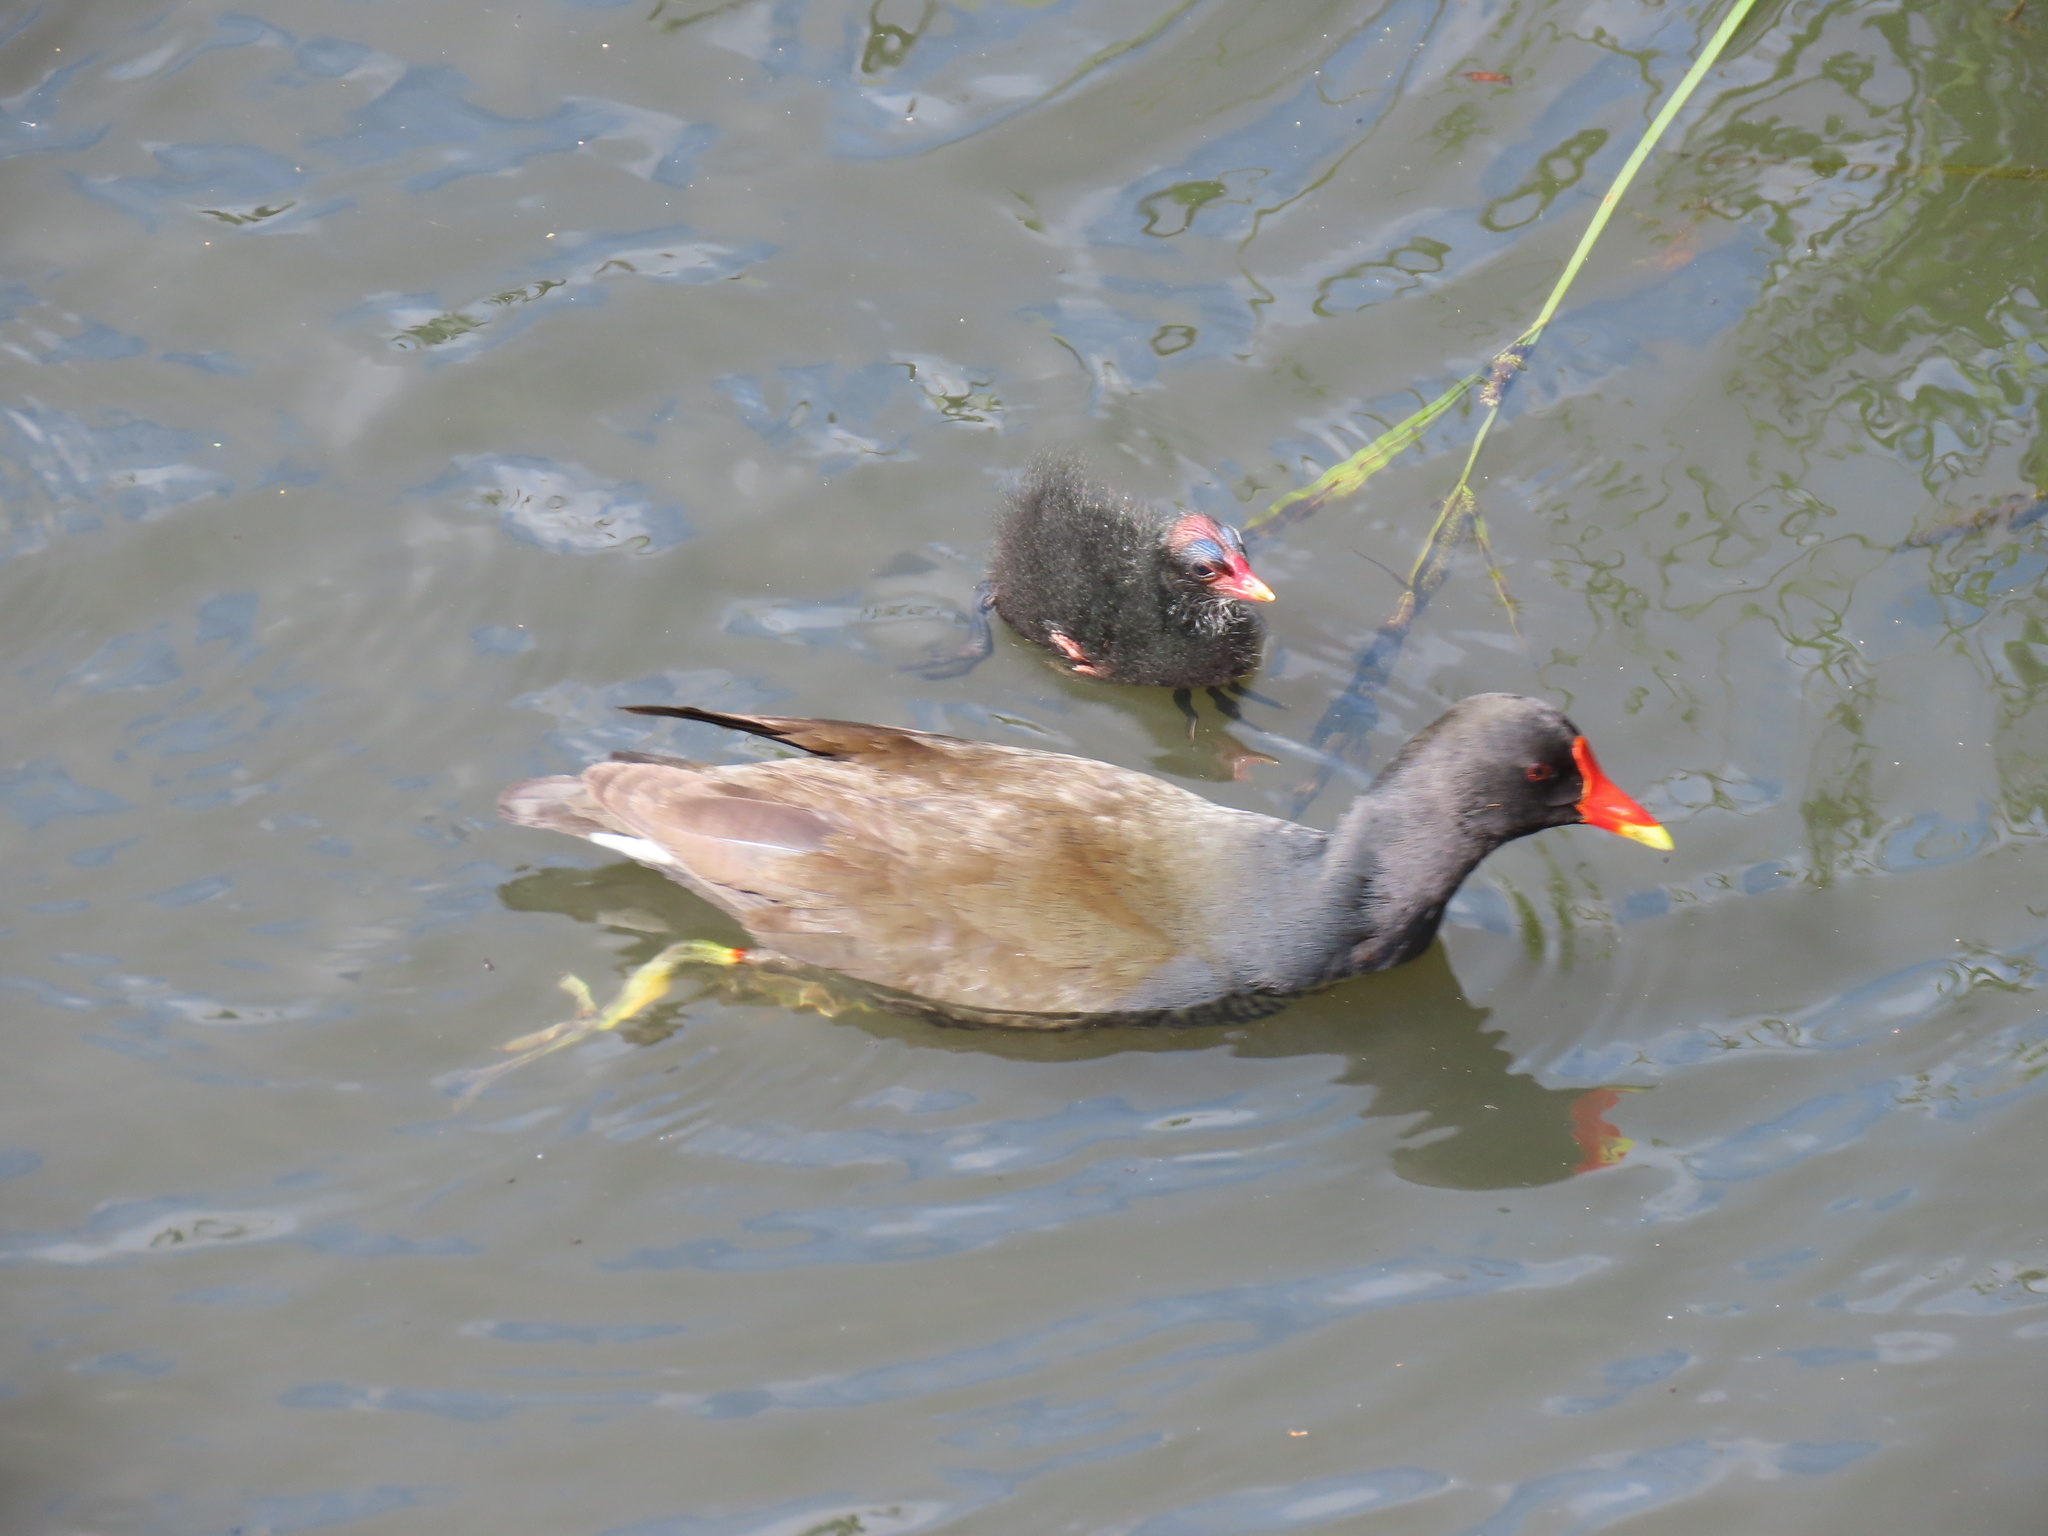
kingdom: Animalia
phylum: Chordata
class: Aves
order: Gruiformes
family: Rallidae
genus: Gallinula
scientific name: Gallinula chloropus
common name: Common moorhen
